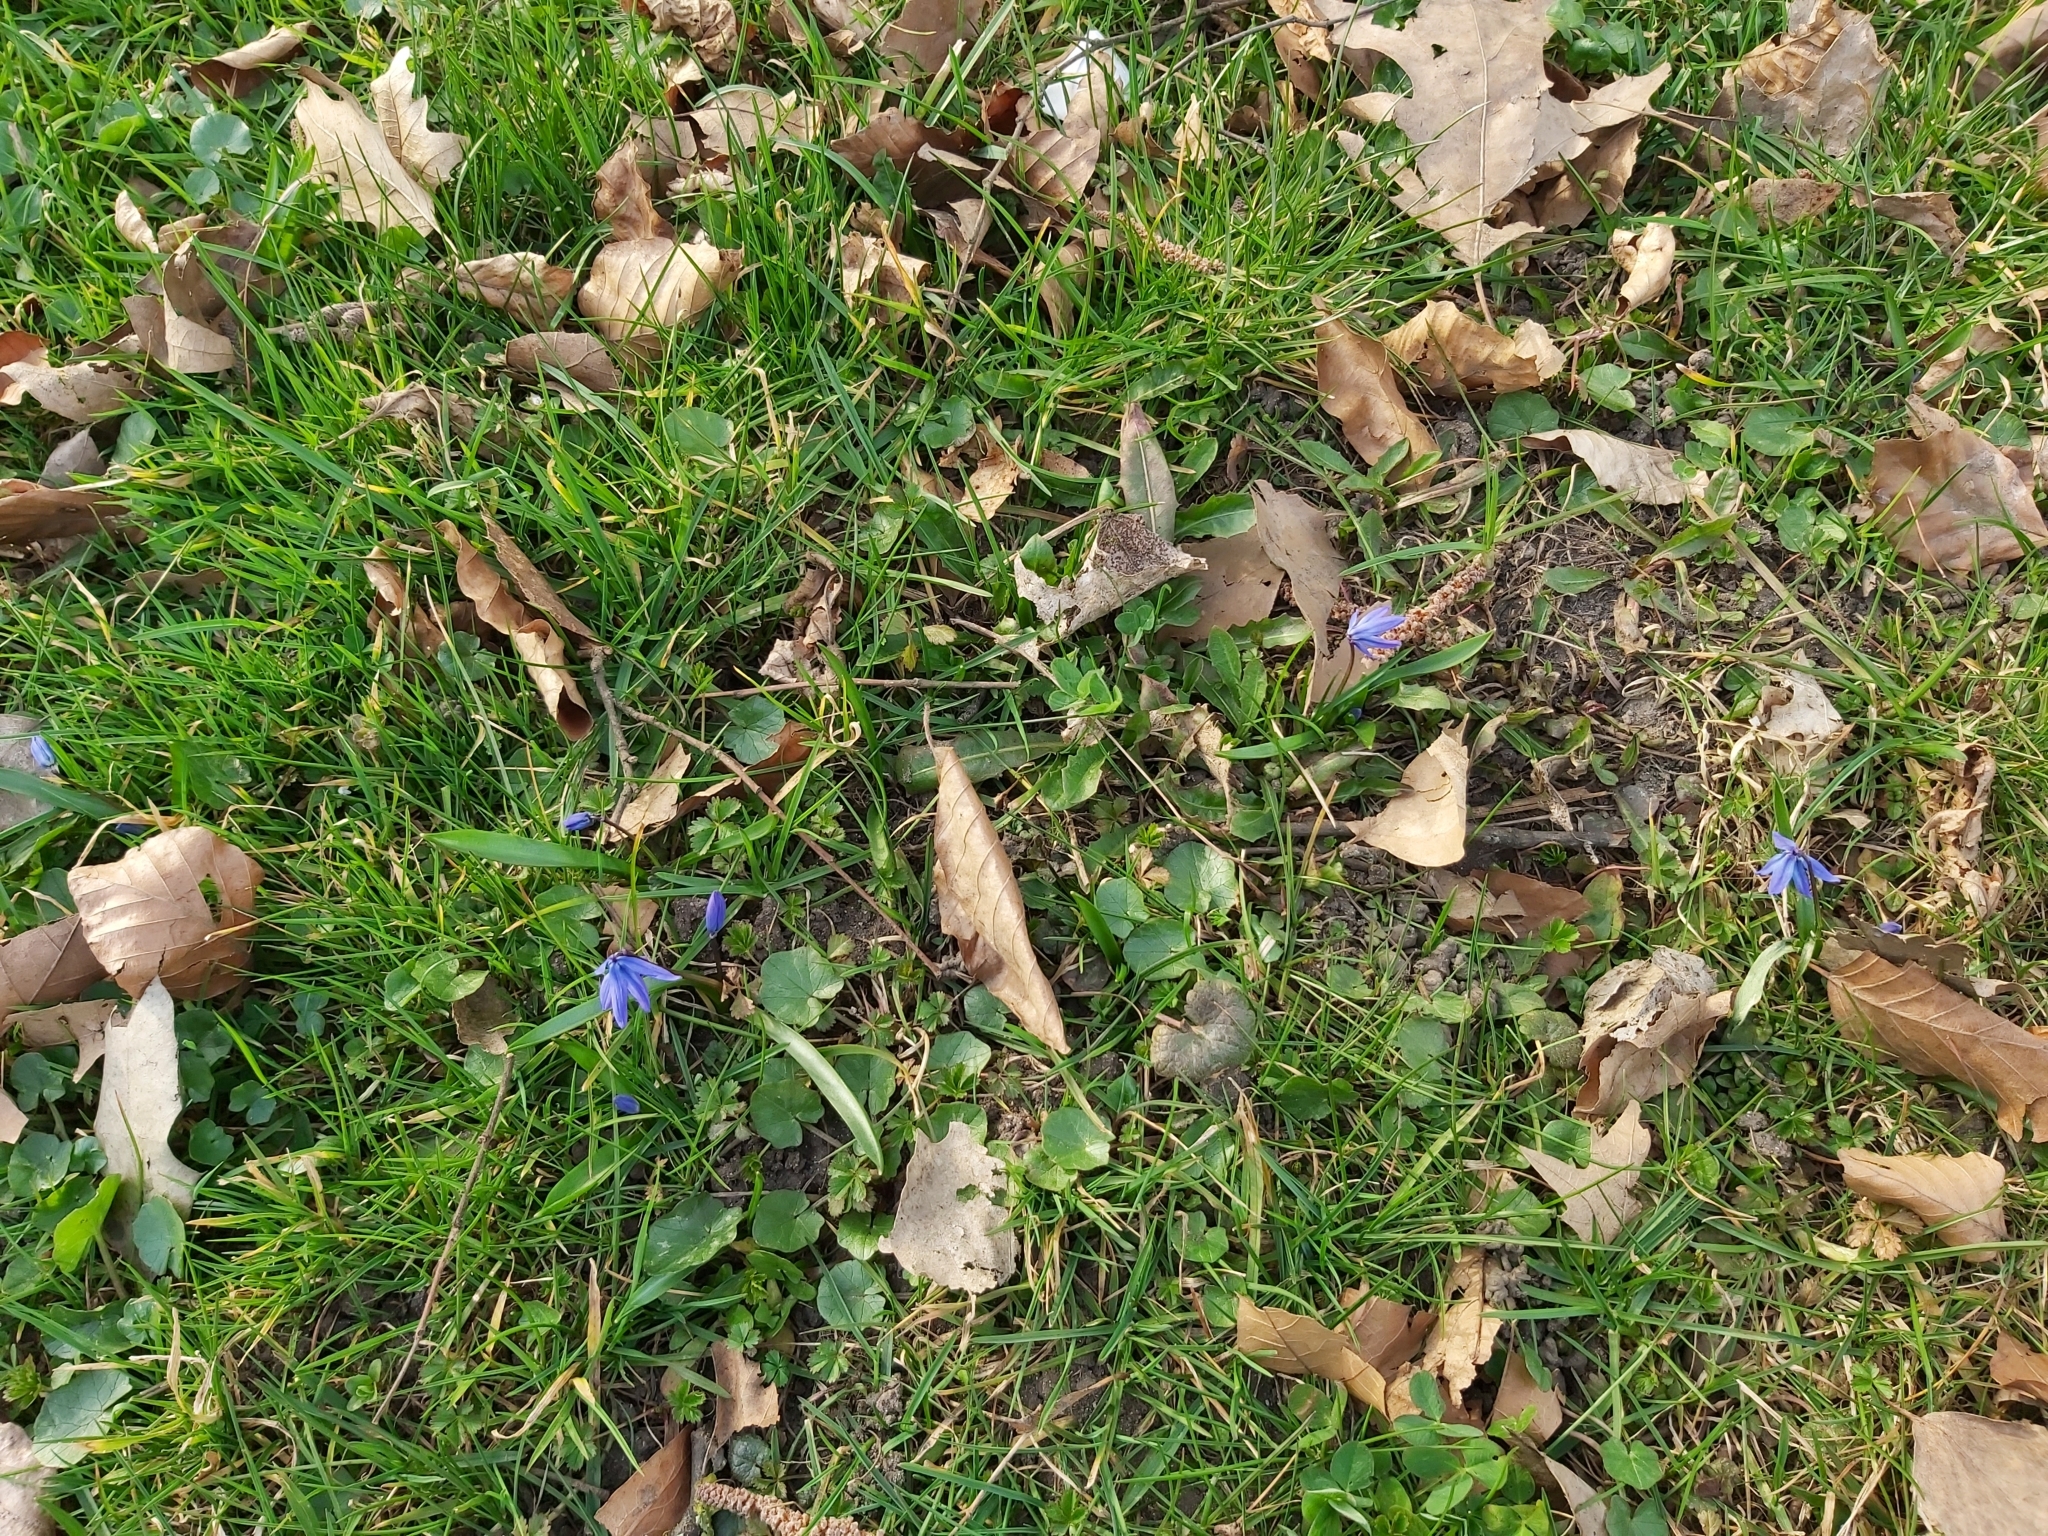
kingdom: Plantae
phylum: Tracheophyta
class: Liliopsida
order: Asparagales
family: Asparagaceae
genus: Scilla
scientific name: Scilla siberica
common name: Siberian squill
